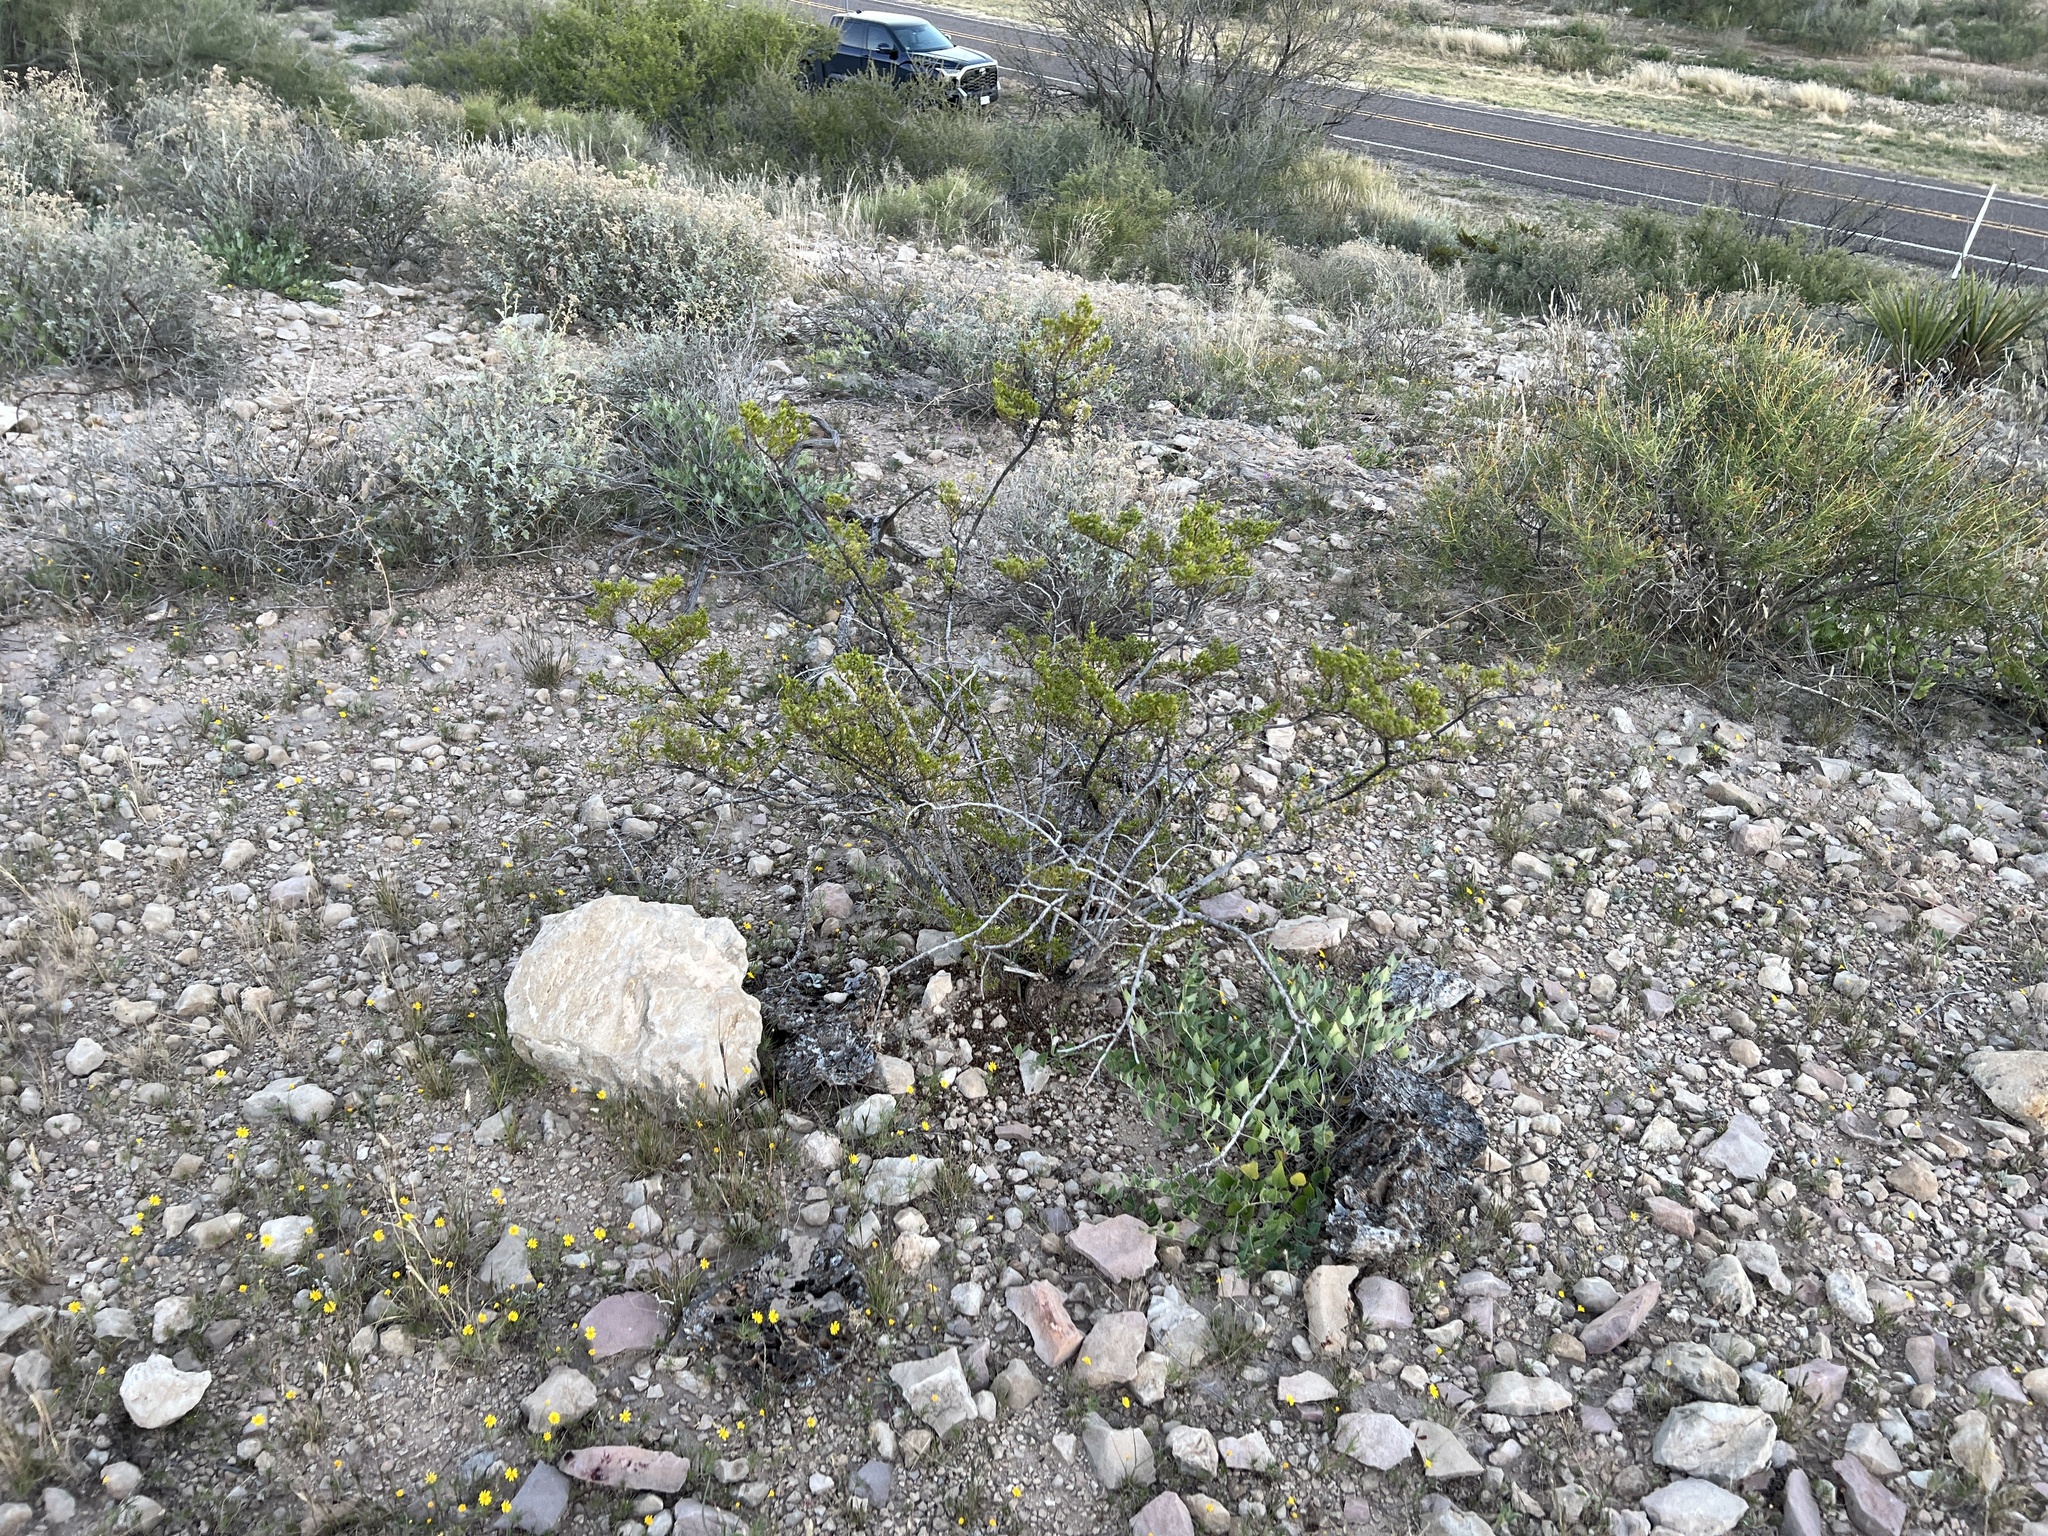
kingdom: Plantae
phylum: Tracheophyta
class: Magnoliopsida
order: Zygophyllales
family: Zygophyllaceae
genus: Larrea
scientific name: Larrea tridentata
